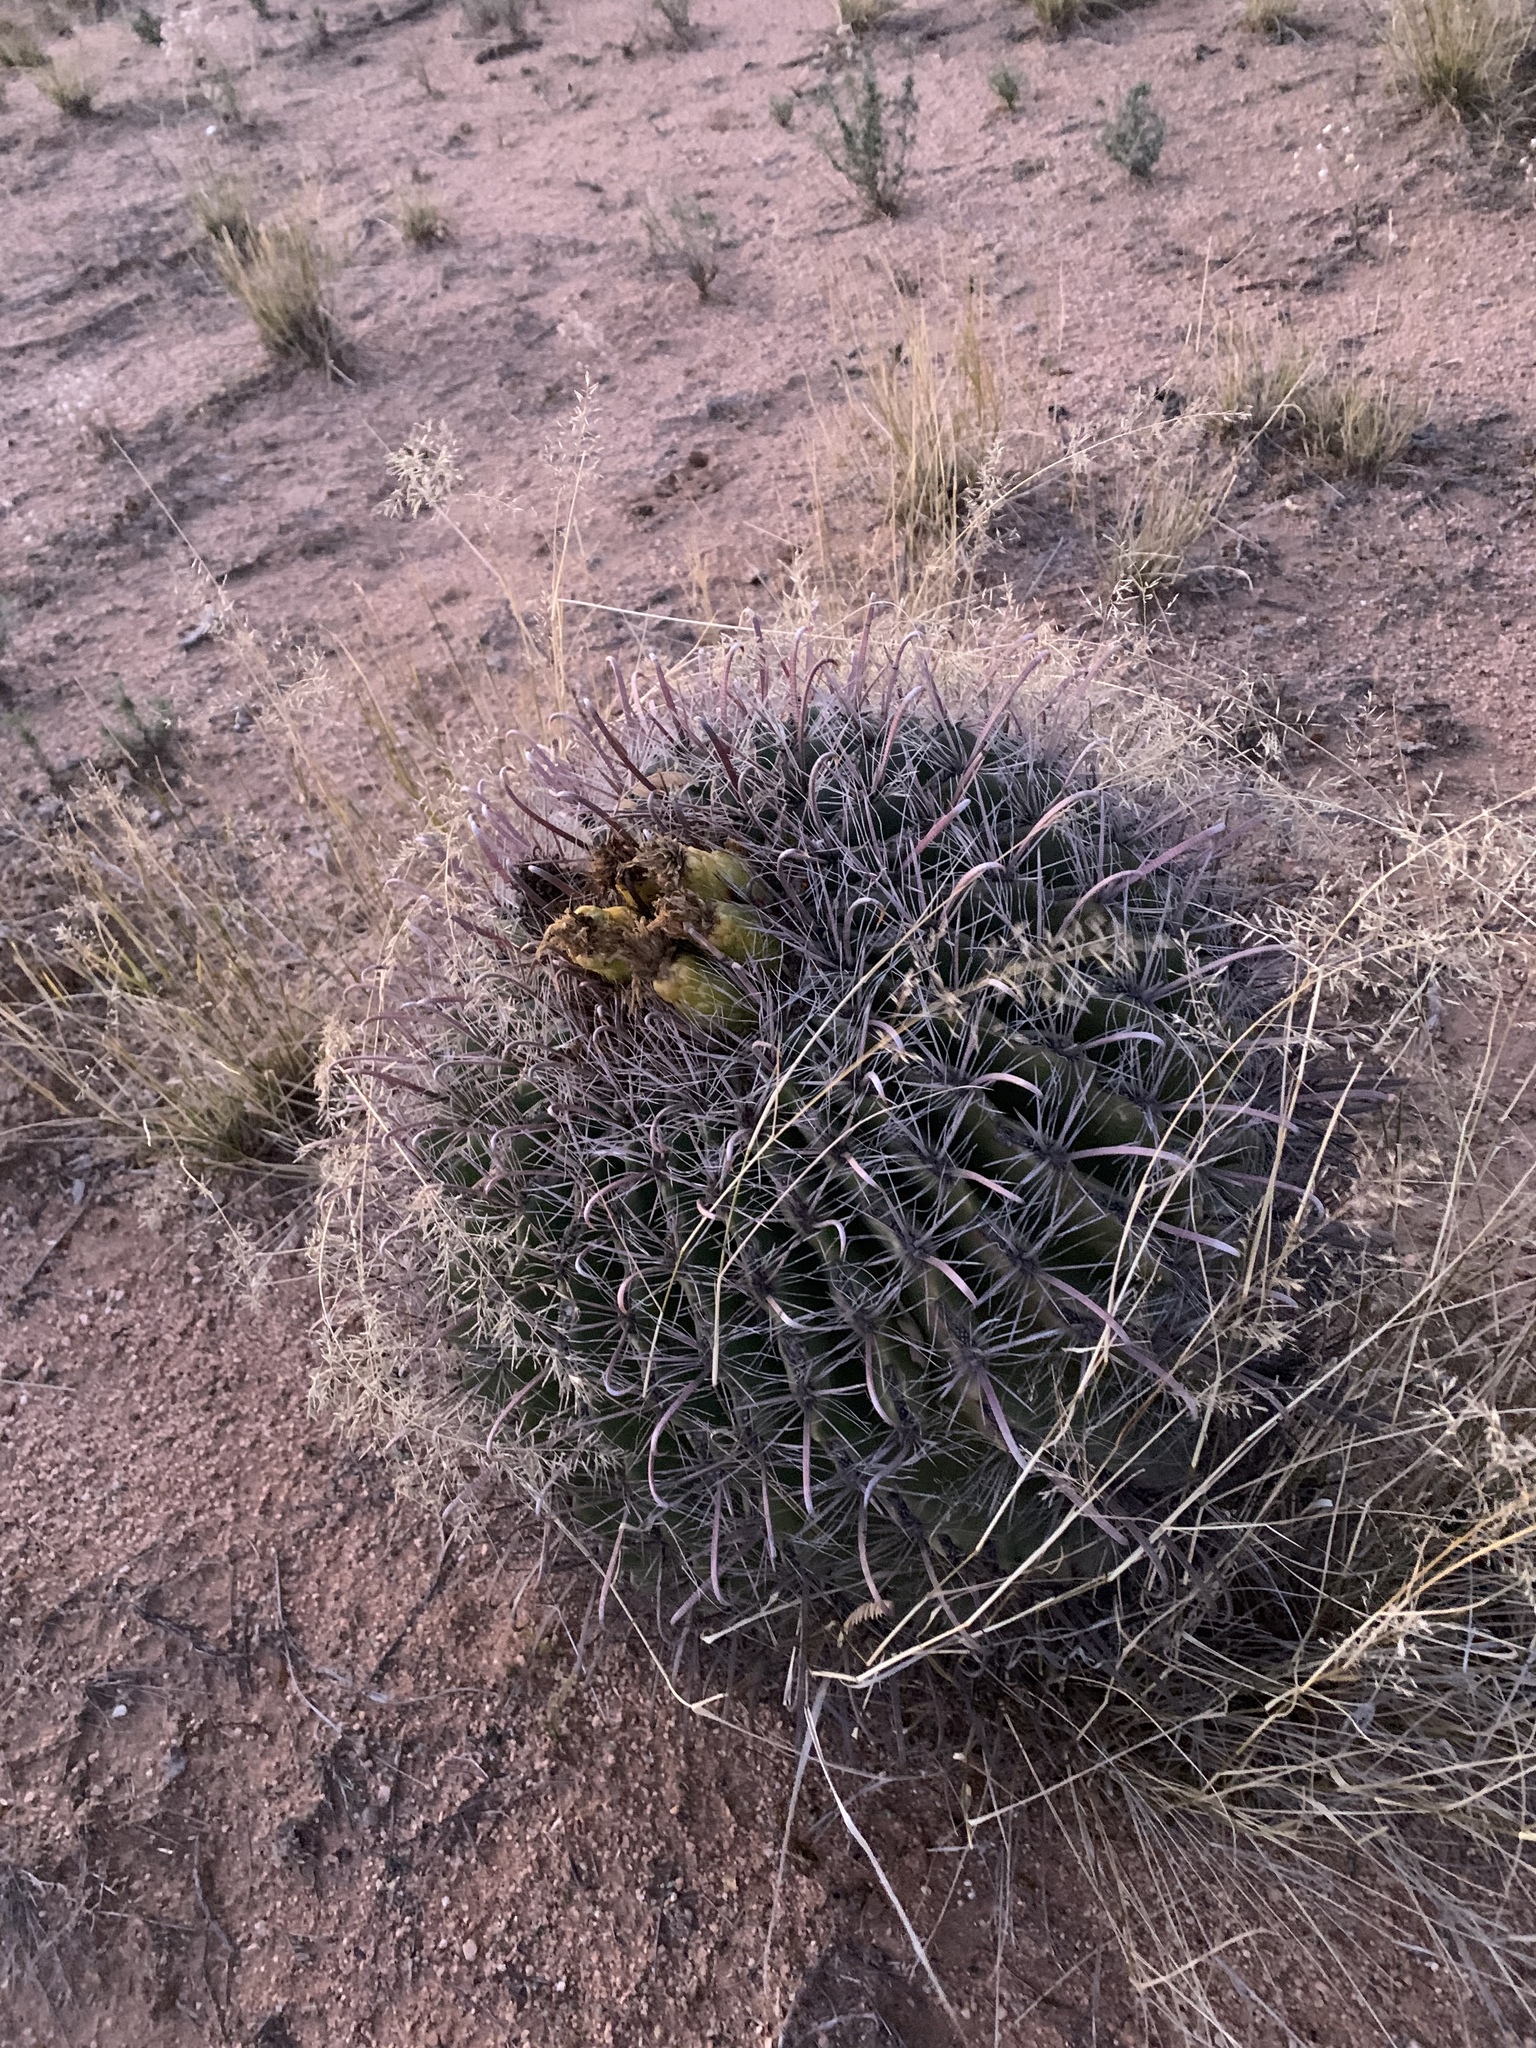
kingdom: Plantae
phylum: Tracheophyta
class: Magnoliopsida
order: Caryophyllales
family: Cactaceae
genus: Ferocactus
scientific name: Ferocactus wislizeni
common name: Candy barrel cactus
